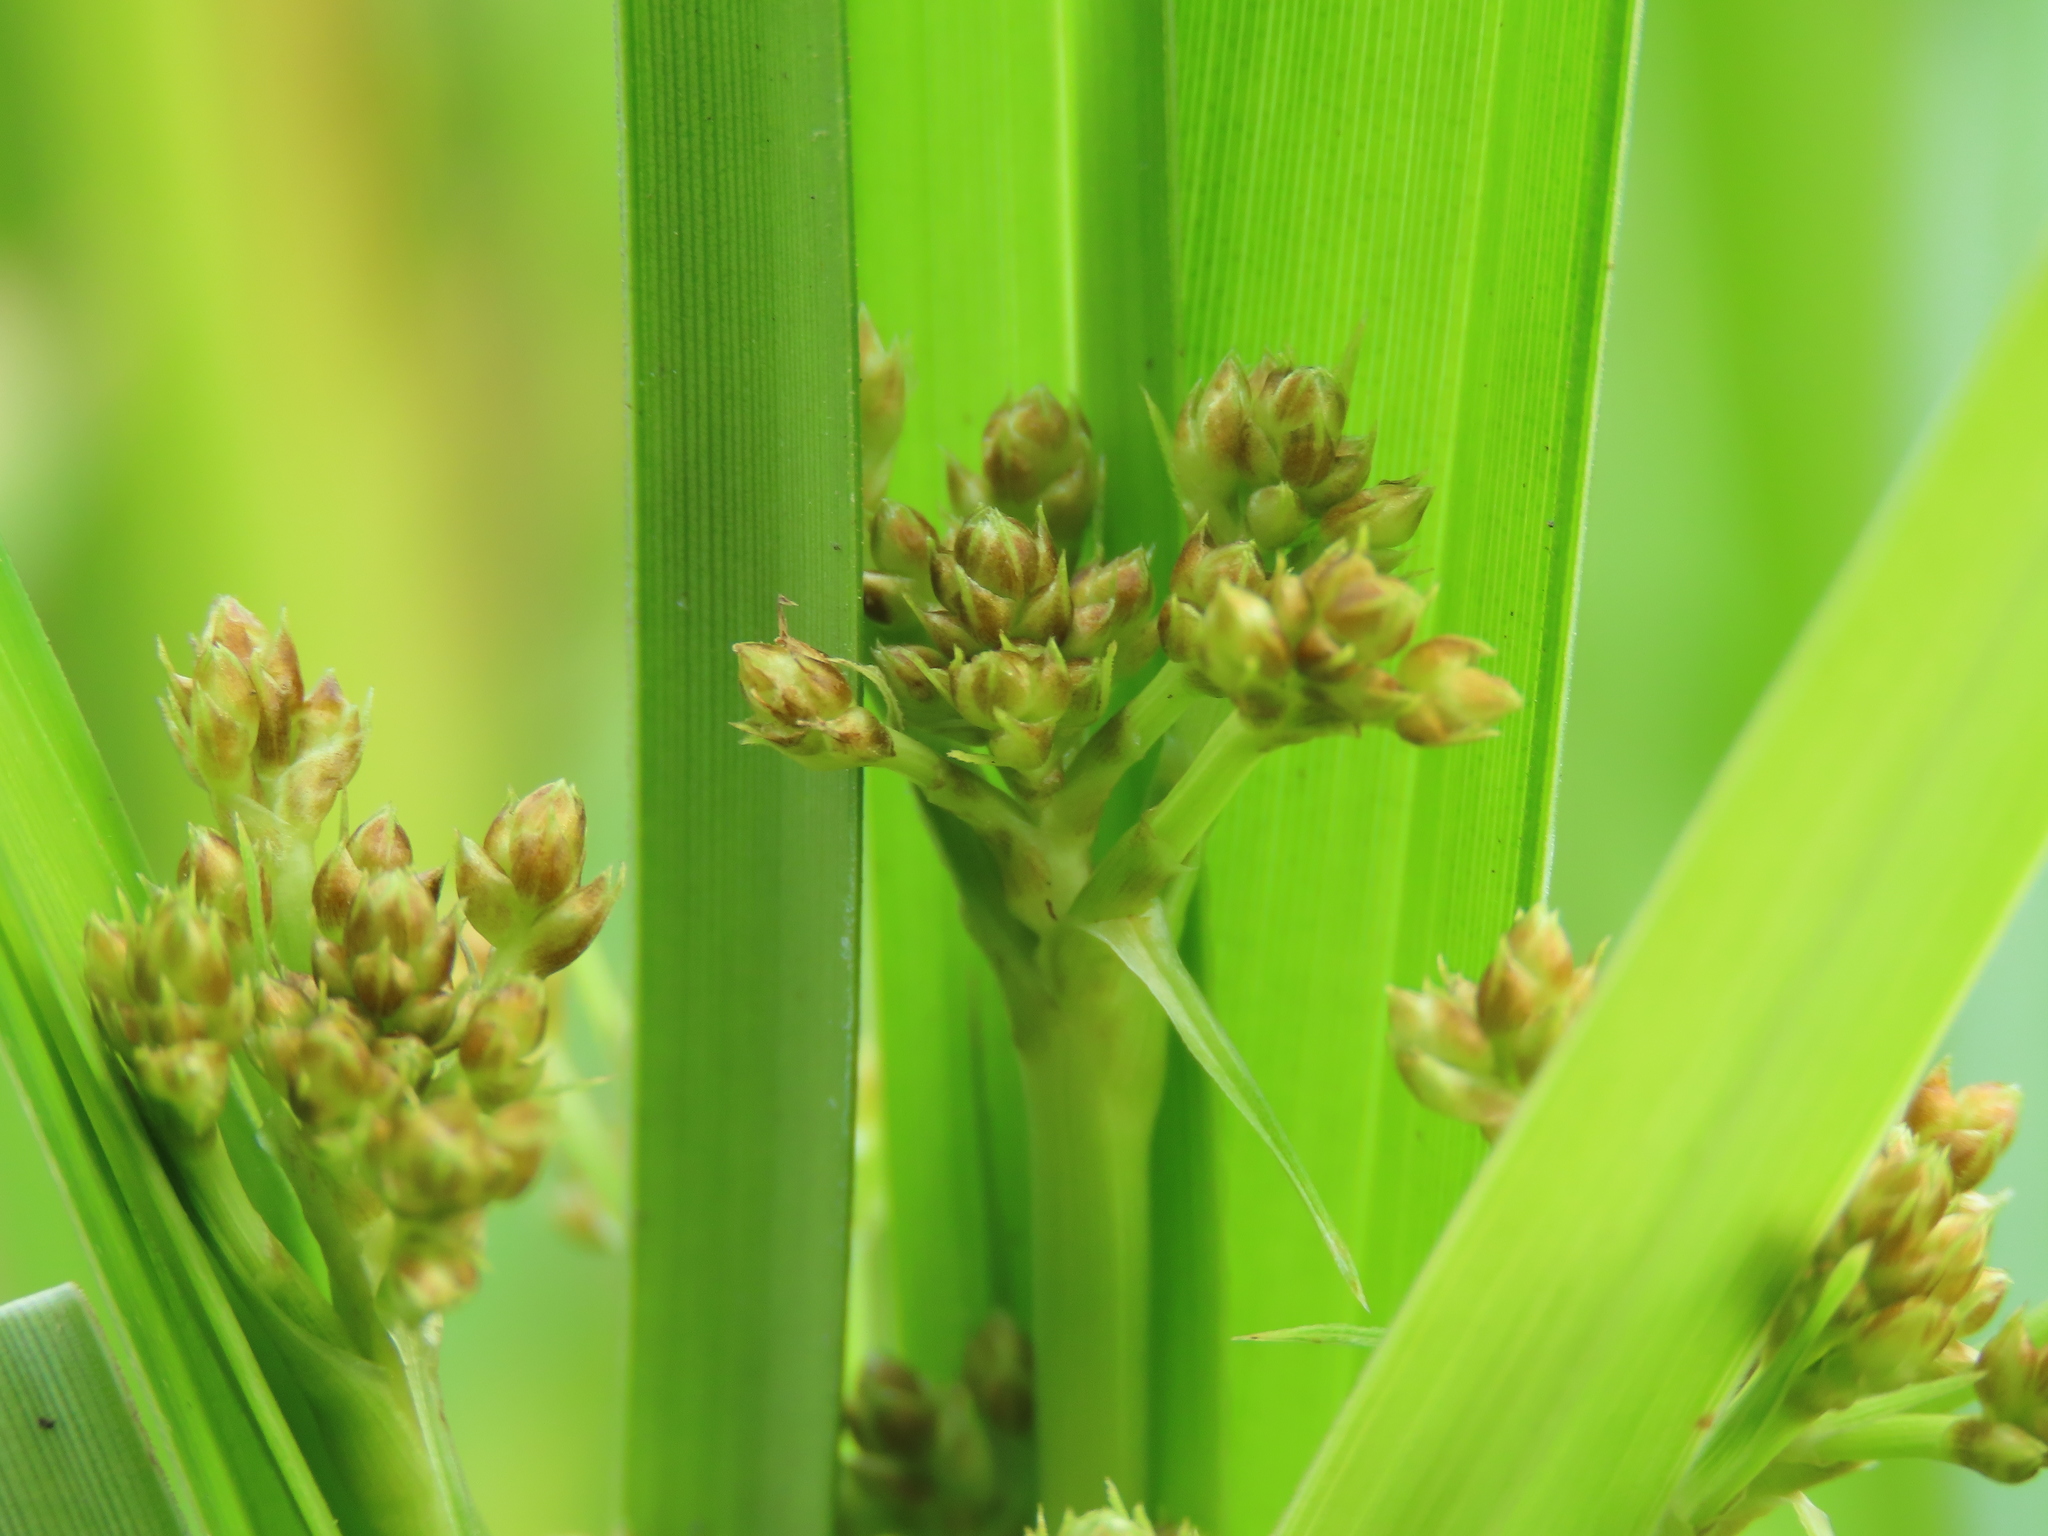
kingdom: Plantae
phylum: Tracheophyta
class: Liliopsida
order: Poales
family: Cyperaceae
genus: Scirpus
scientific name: Scirpus ternatanus
